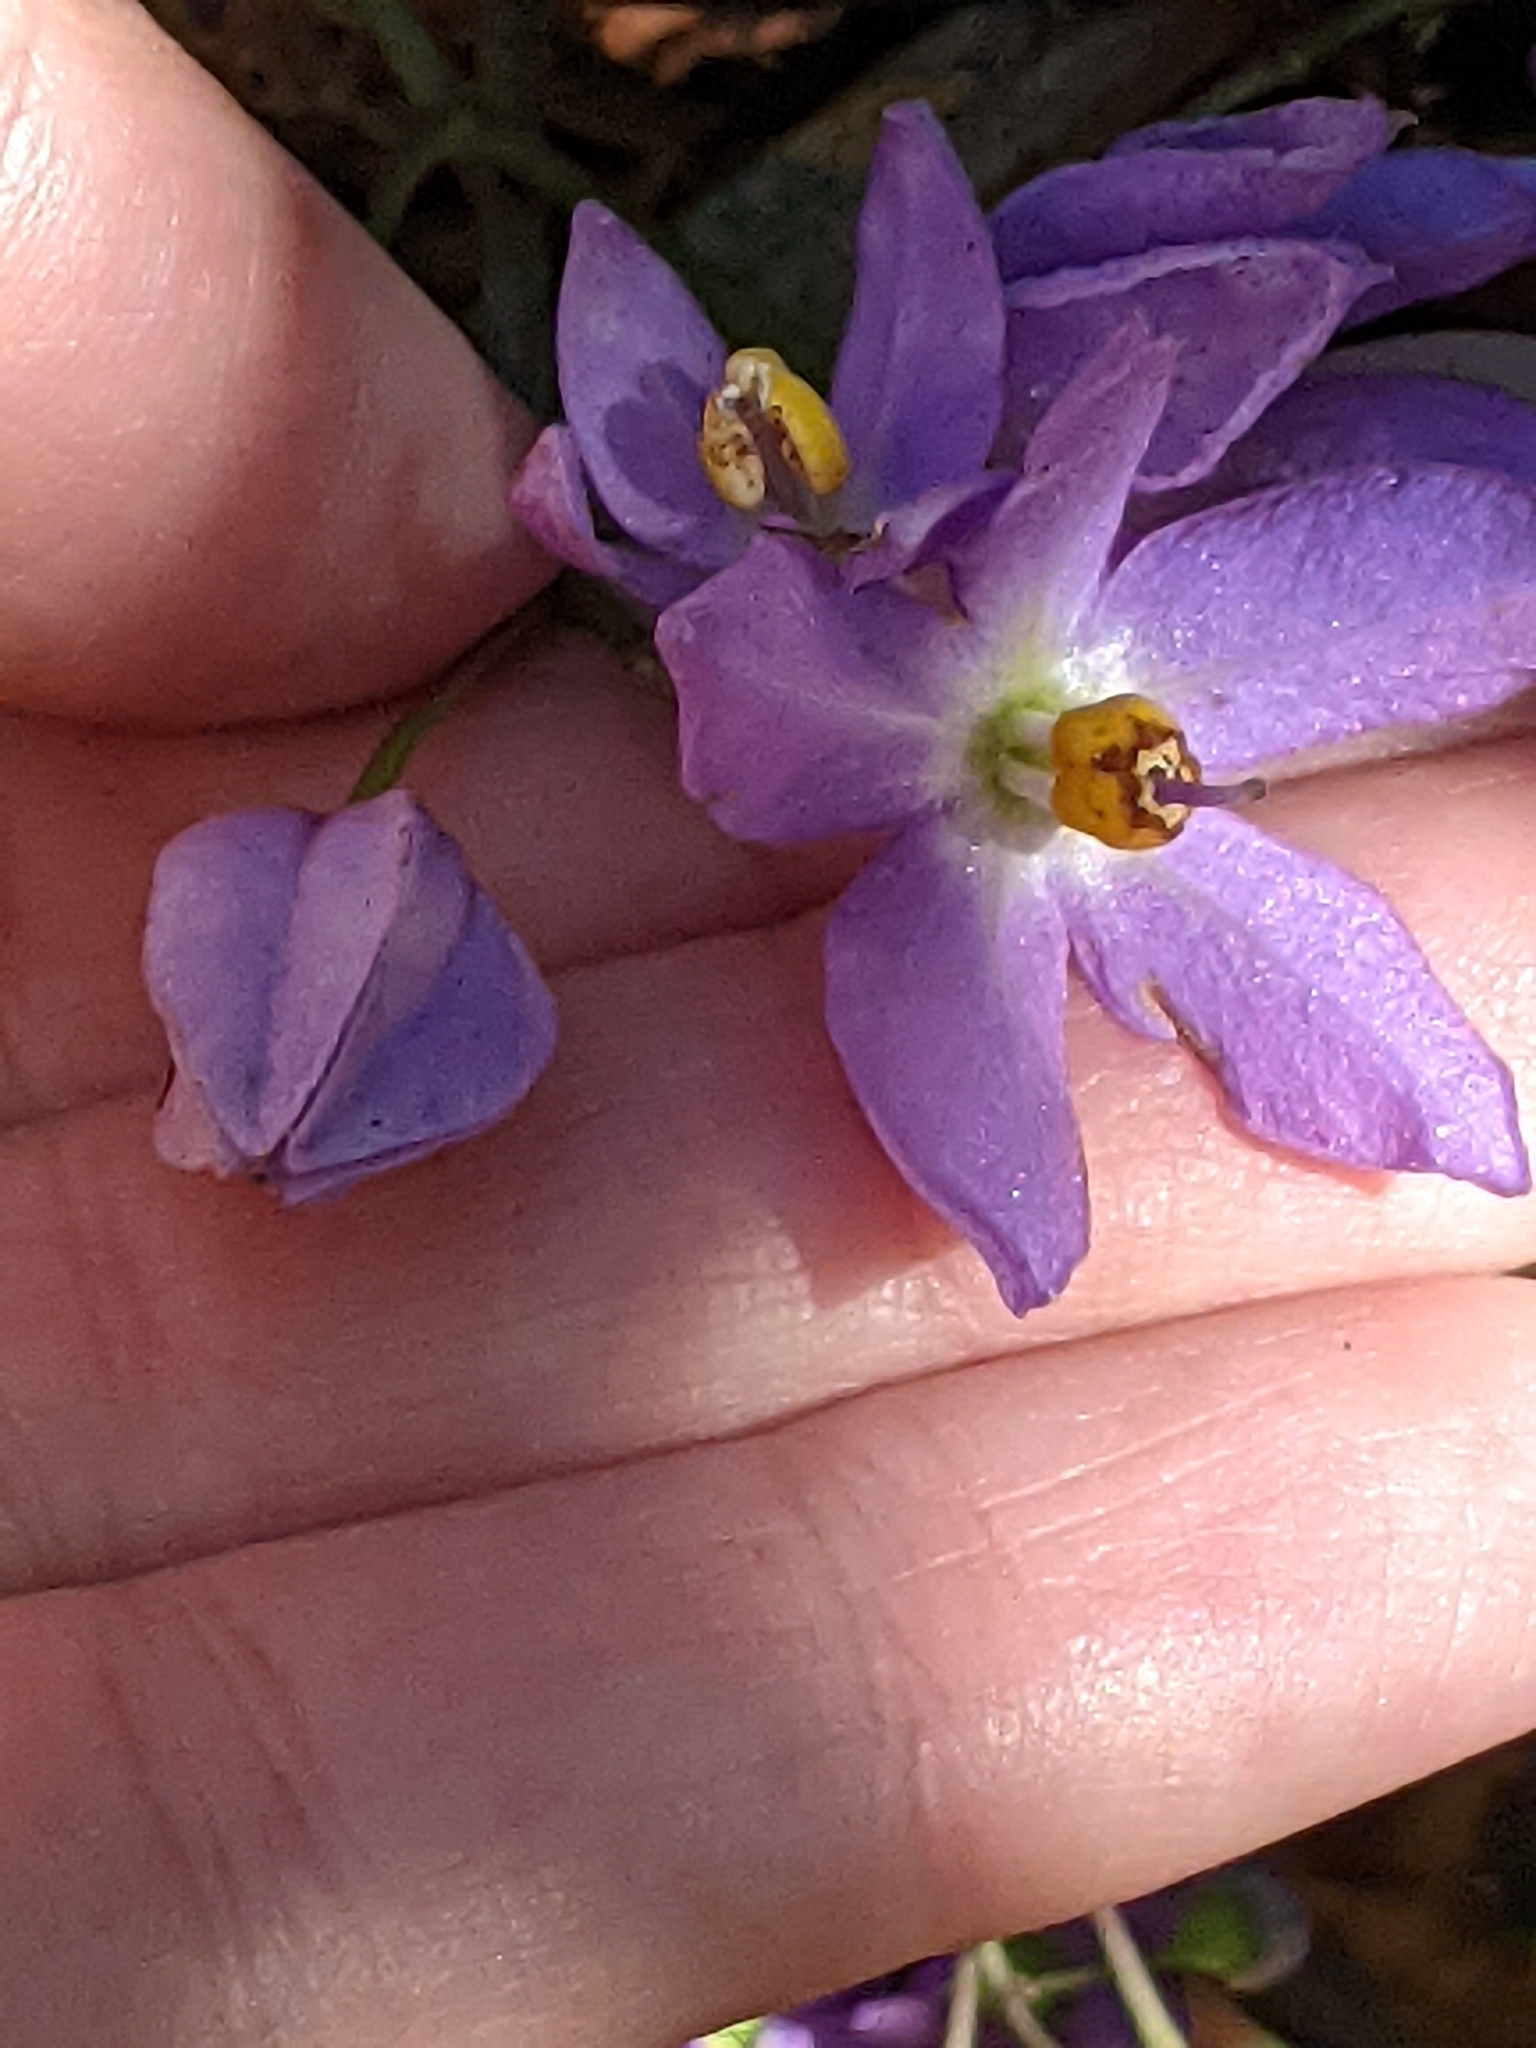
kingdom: Plantae
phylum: Tracheophyta
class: Magnoliopsida
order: Solanales
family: Solanaceae
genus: Solanum
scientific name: Solanum seaforthianum
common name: Brazilian nightshade
